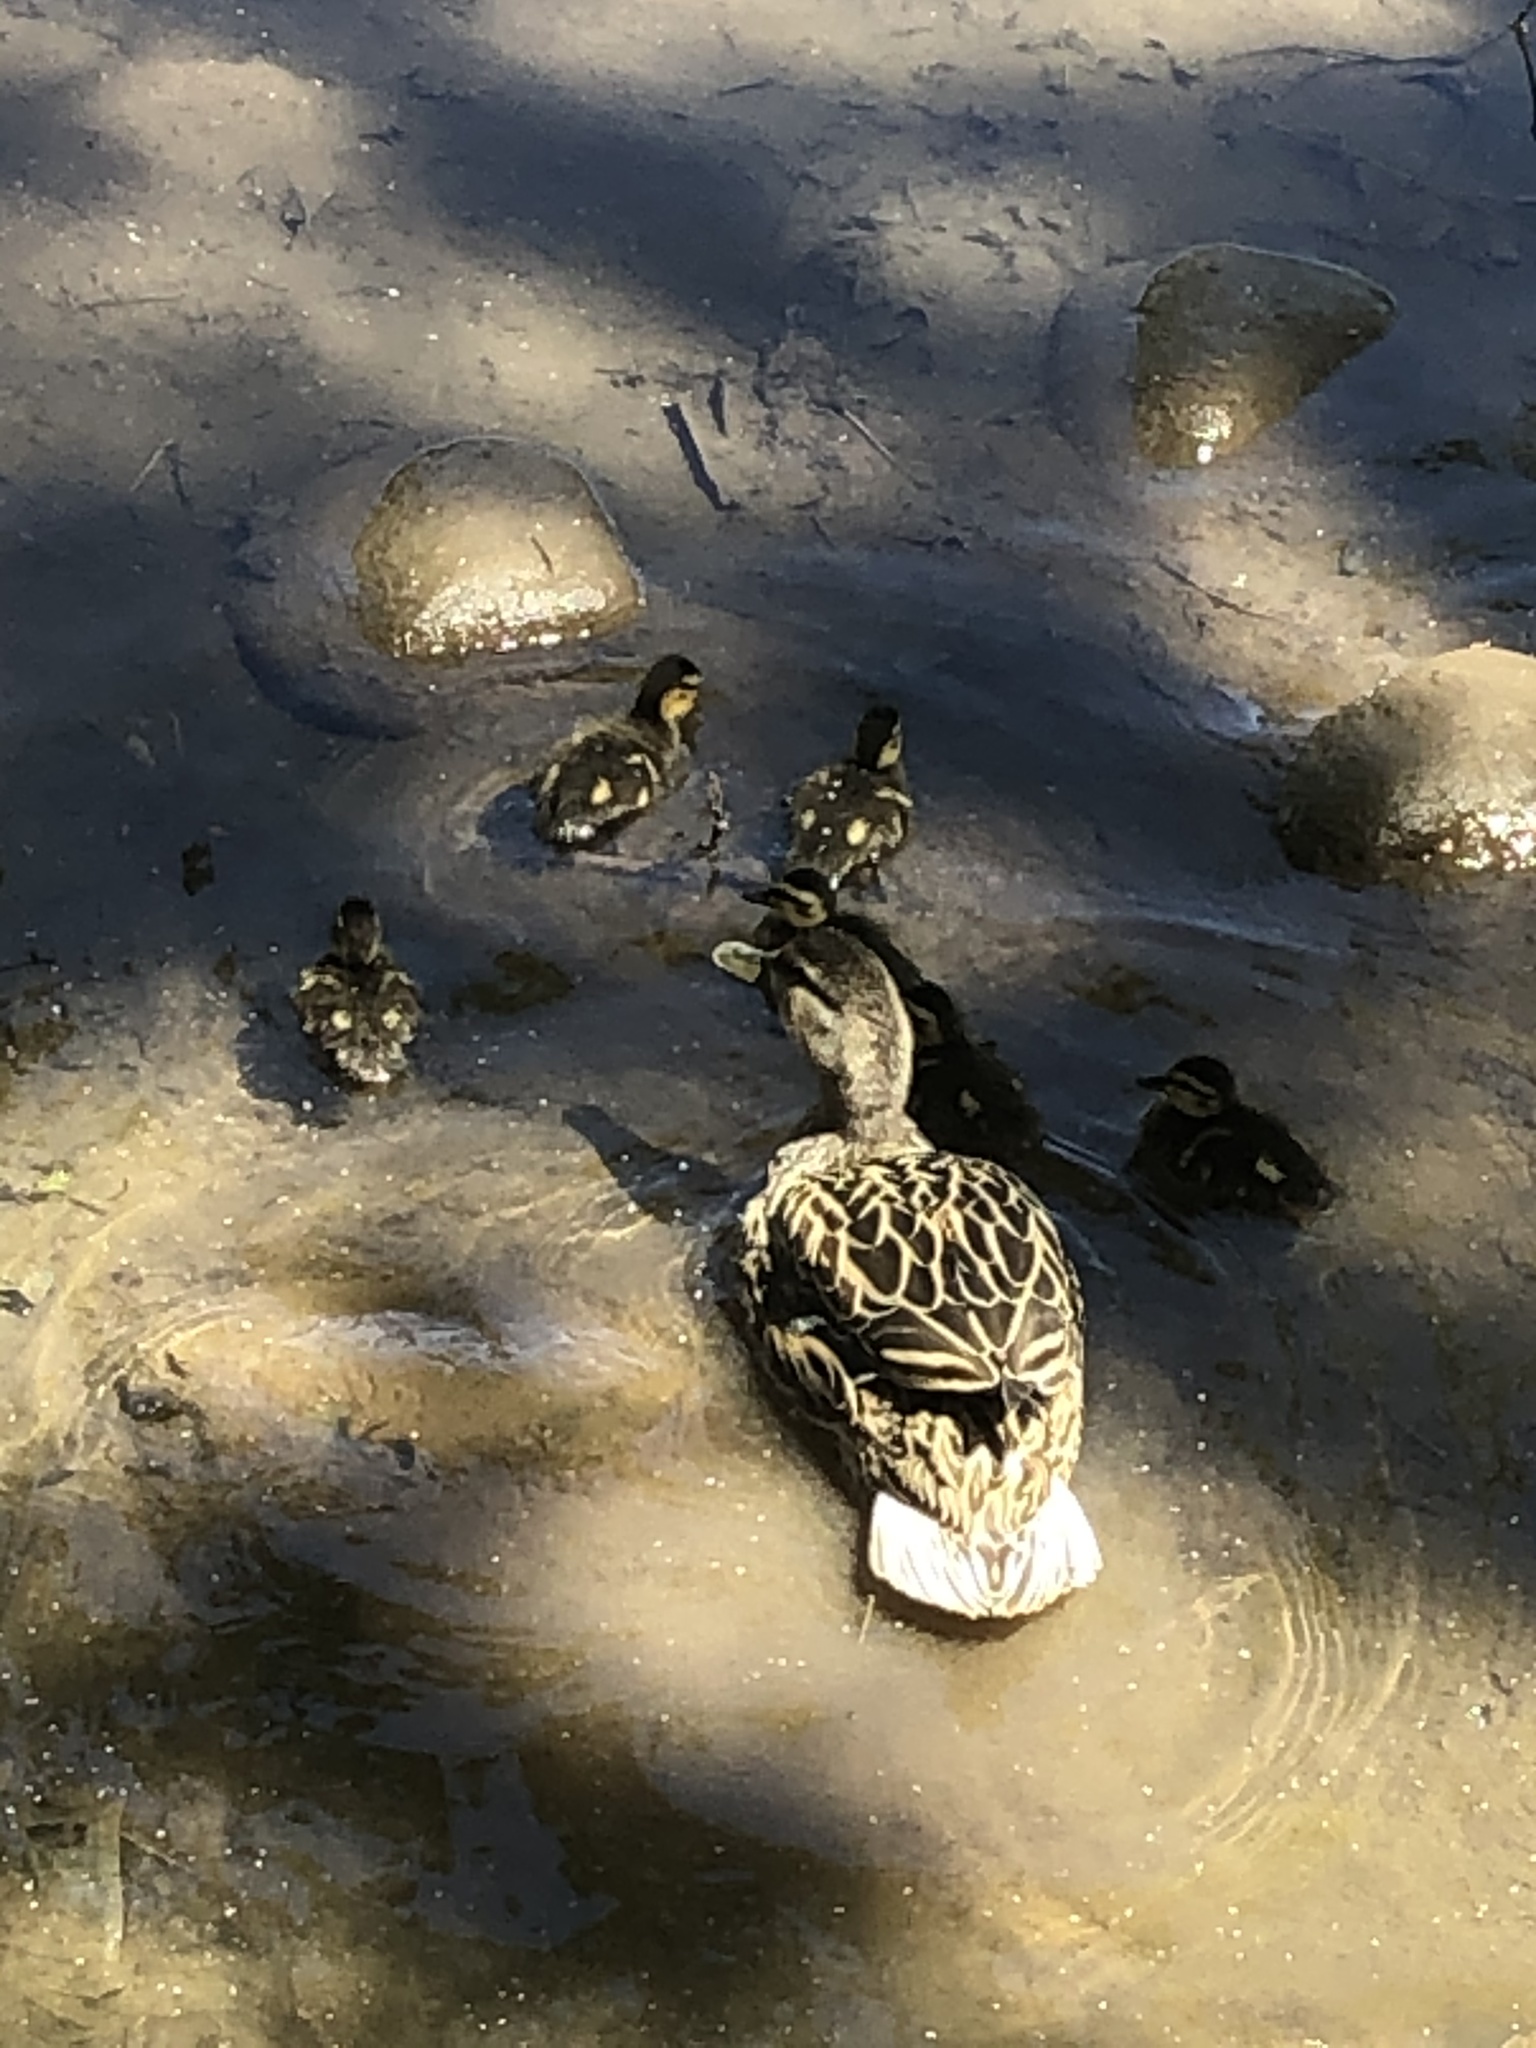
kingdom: Animalia
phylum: Chordata
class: Aves
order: Anseriformes
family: Anatidae
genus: Anas
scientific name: Anas platyrhynchos
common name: Mallard
